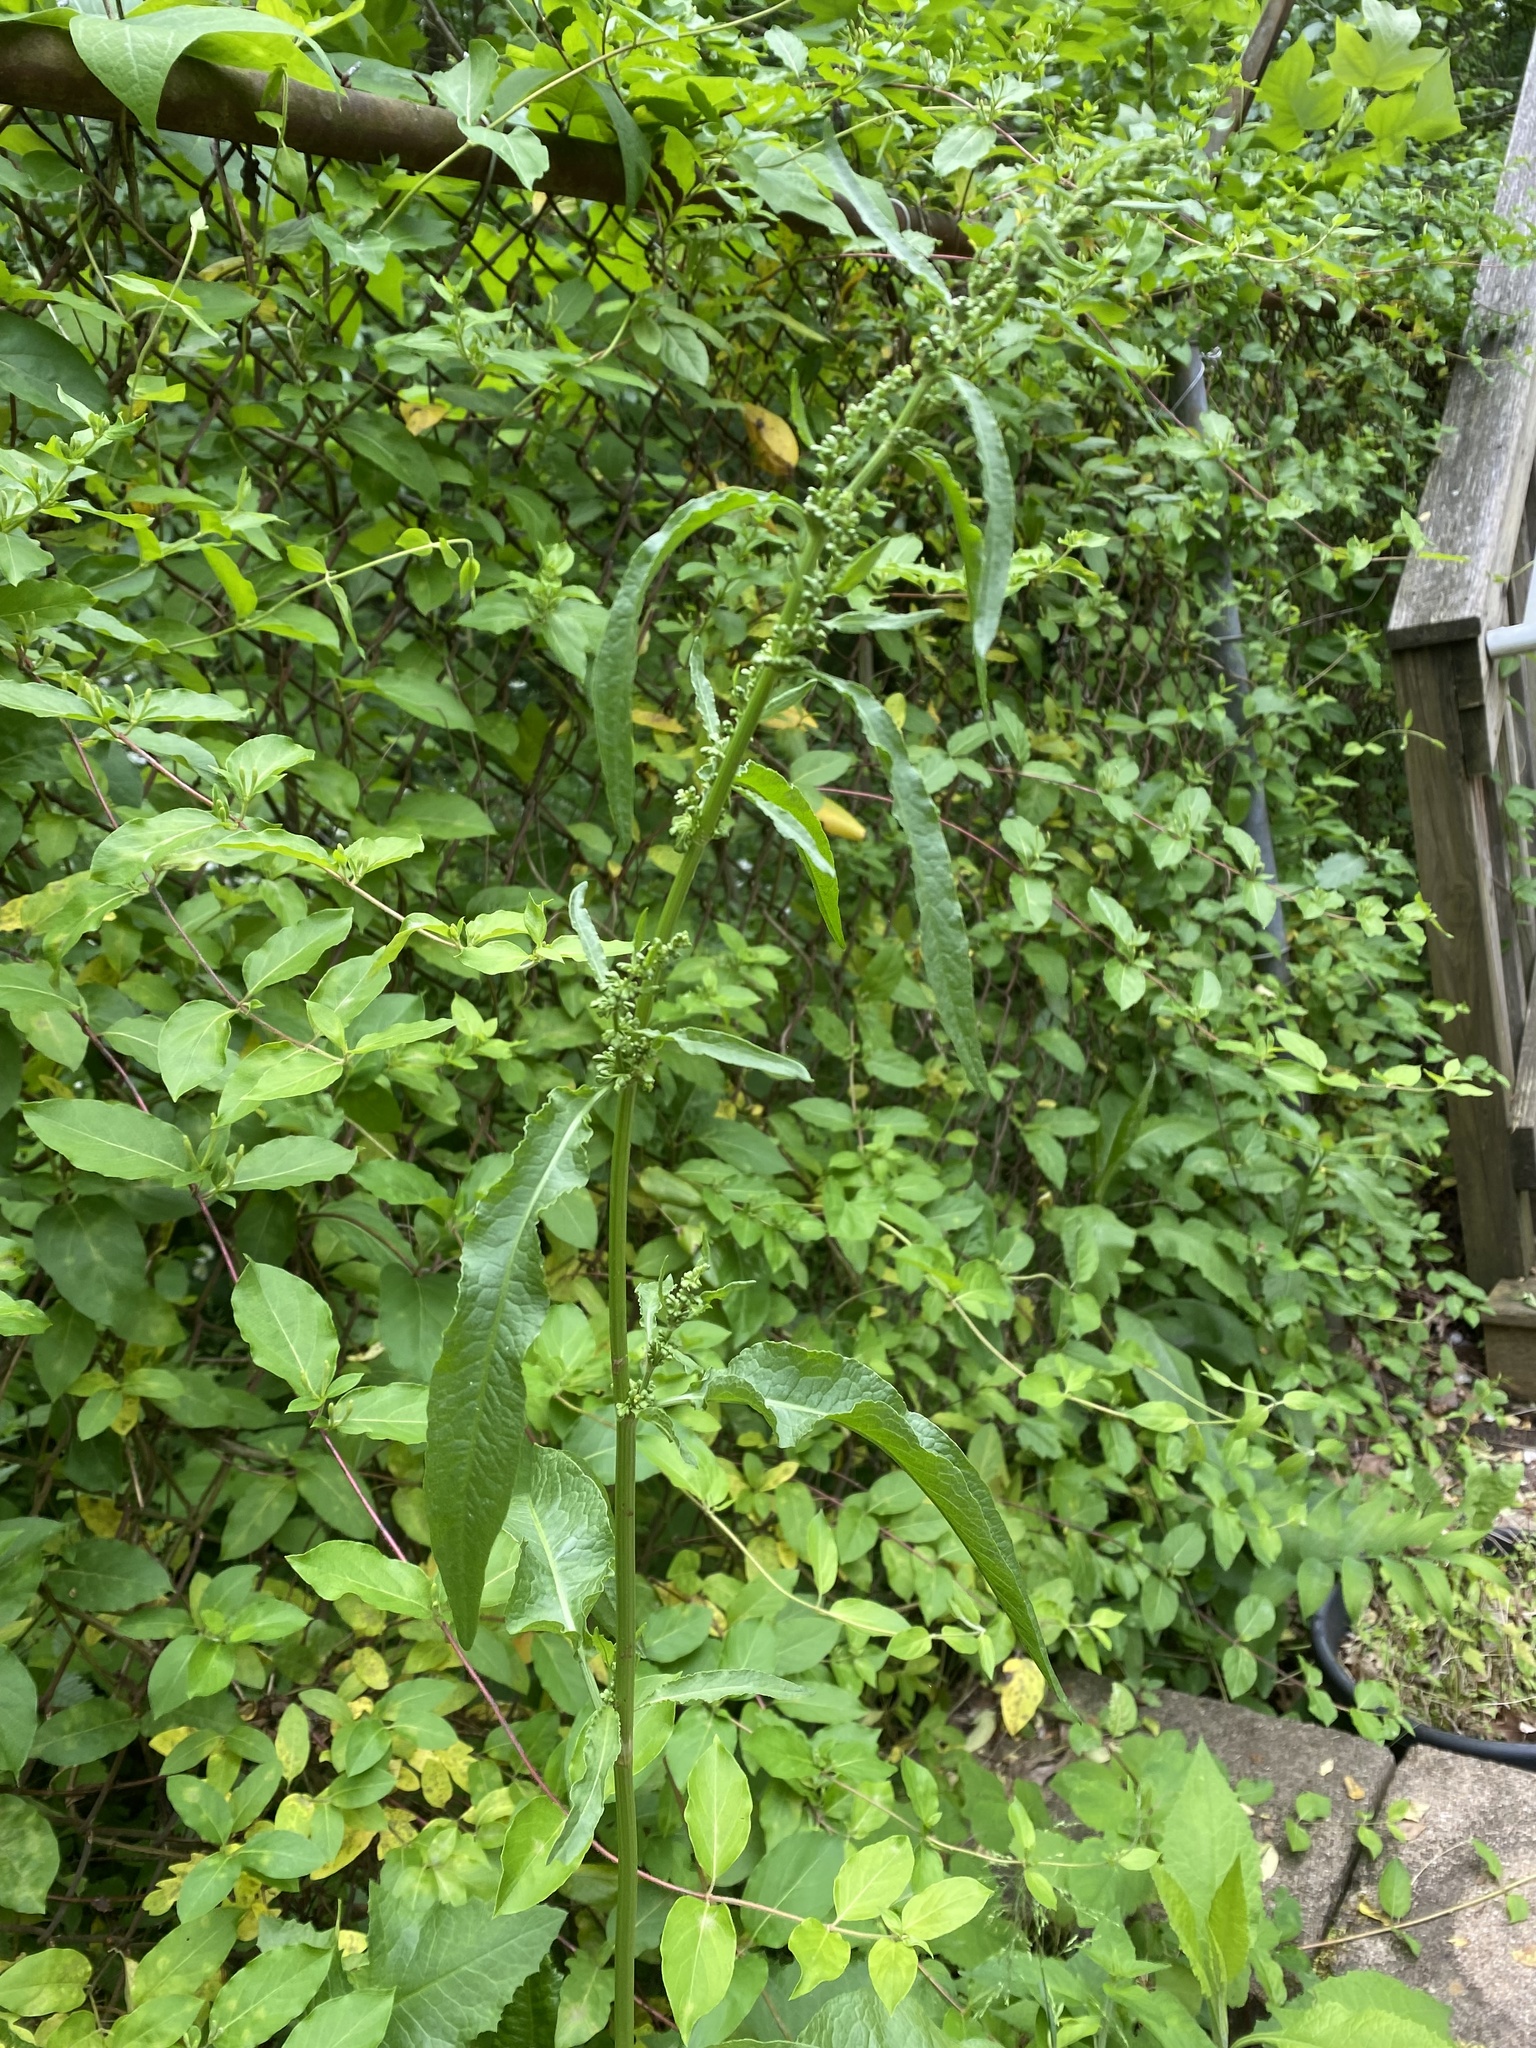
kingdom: Plantae
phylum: Tracheophyta
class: Magnoliopsida
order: Caryophyllales
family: Polygonaceae
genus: Rumex
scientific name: Rumex crispus
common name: Curled dock
